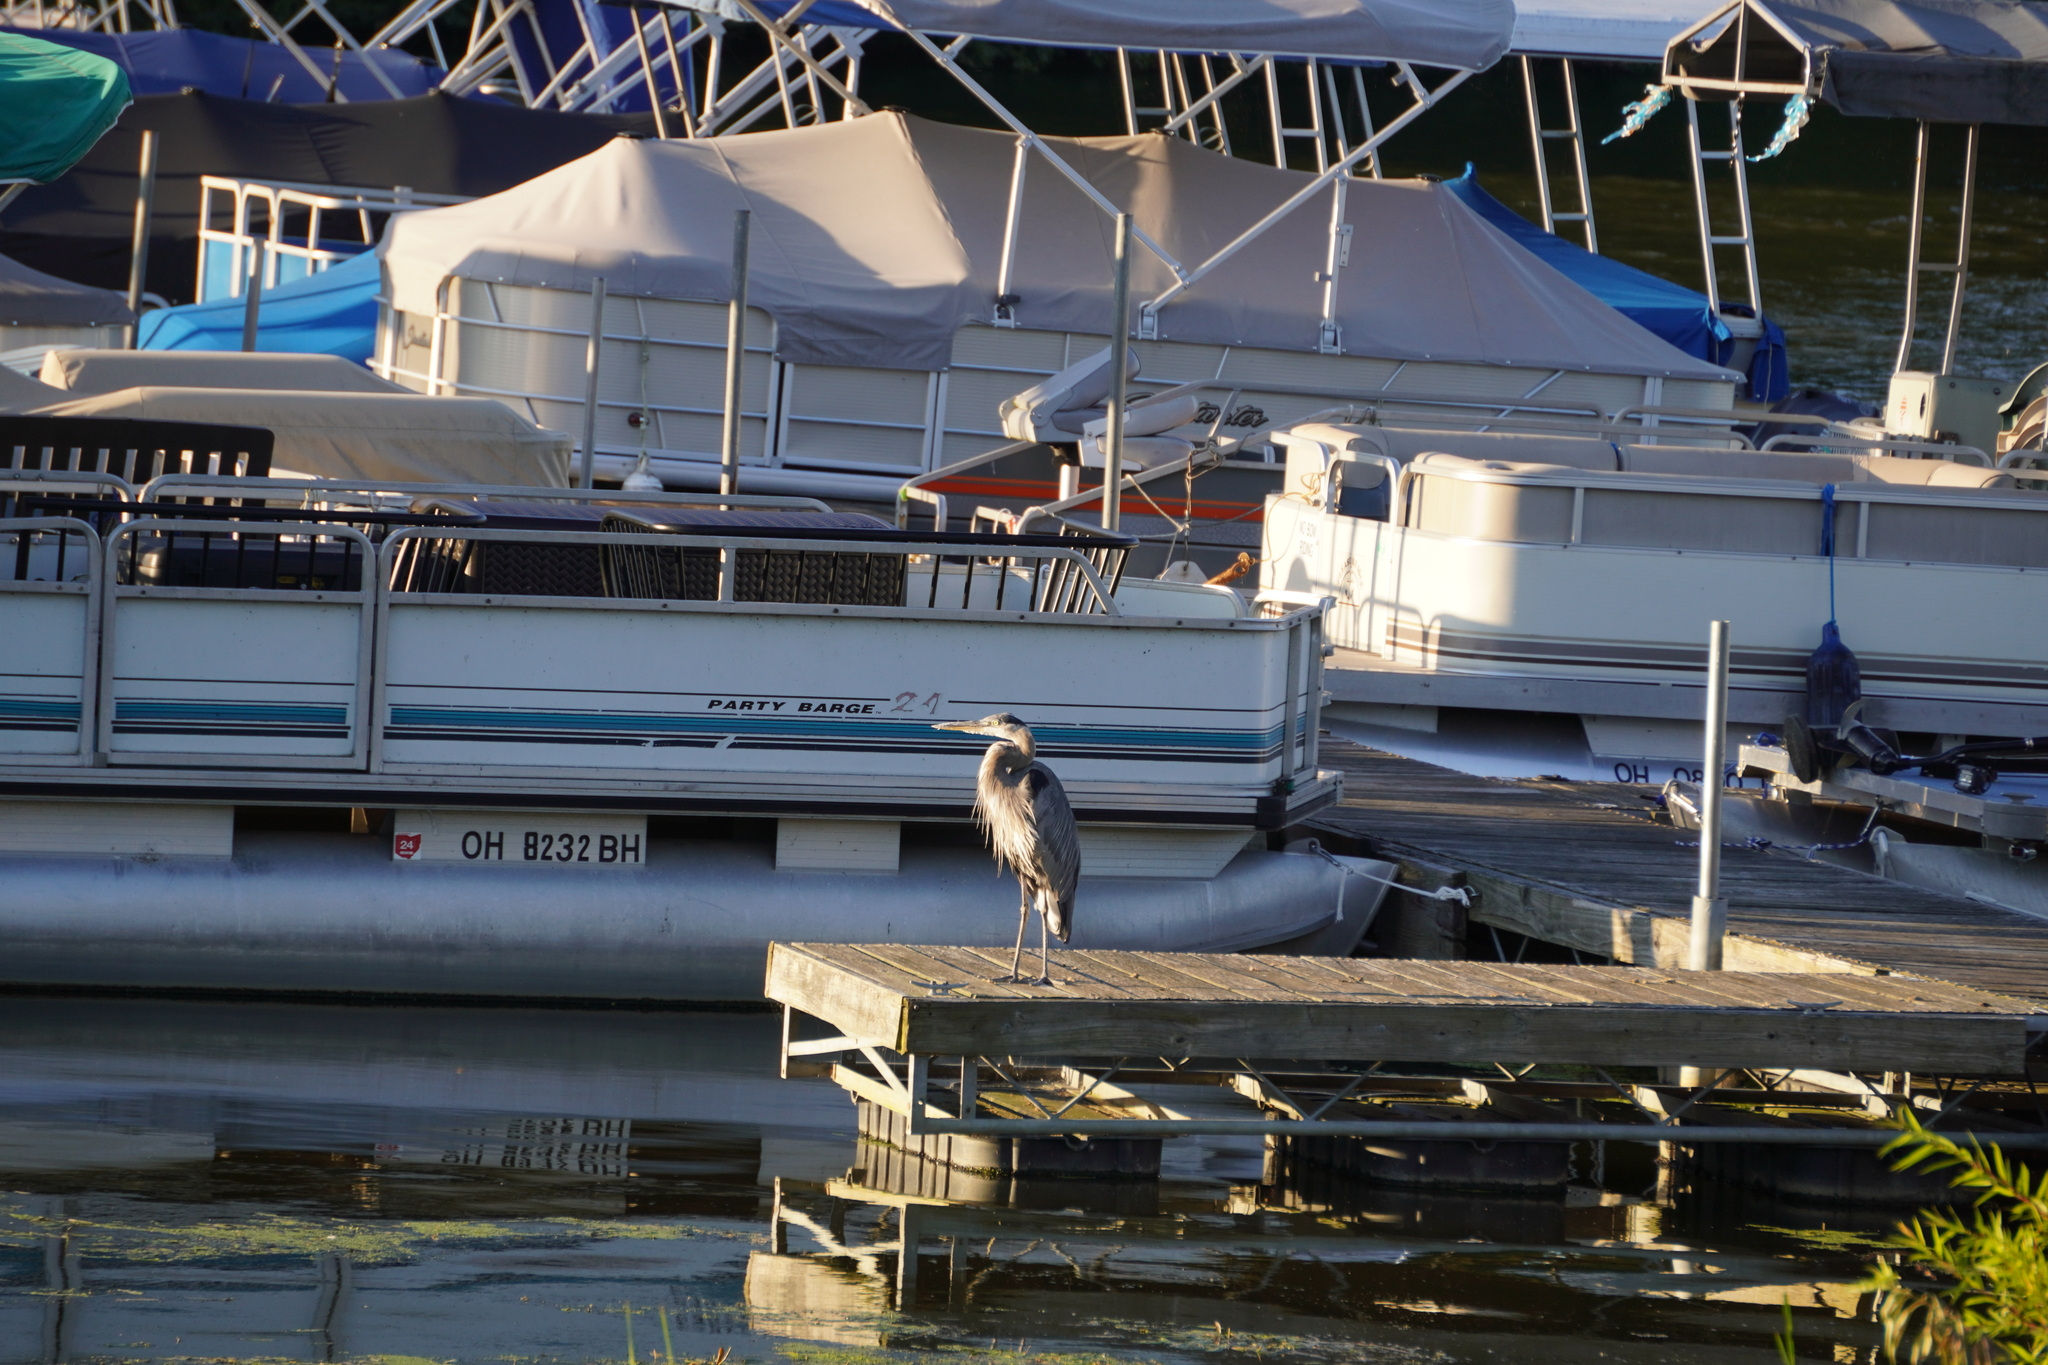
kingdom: Animalia
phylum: Chordata
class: Aves
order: Pelecaniformes
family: Ardeidae
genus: Ardea
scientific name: Ardea herodias
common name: Great blue heron
